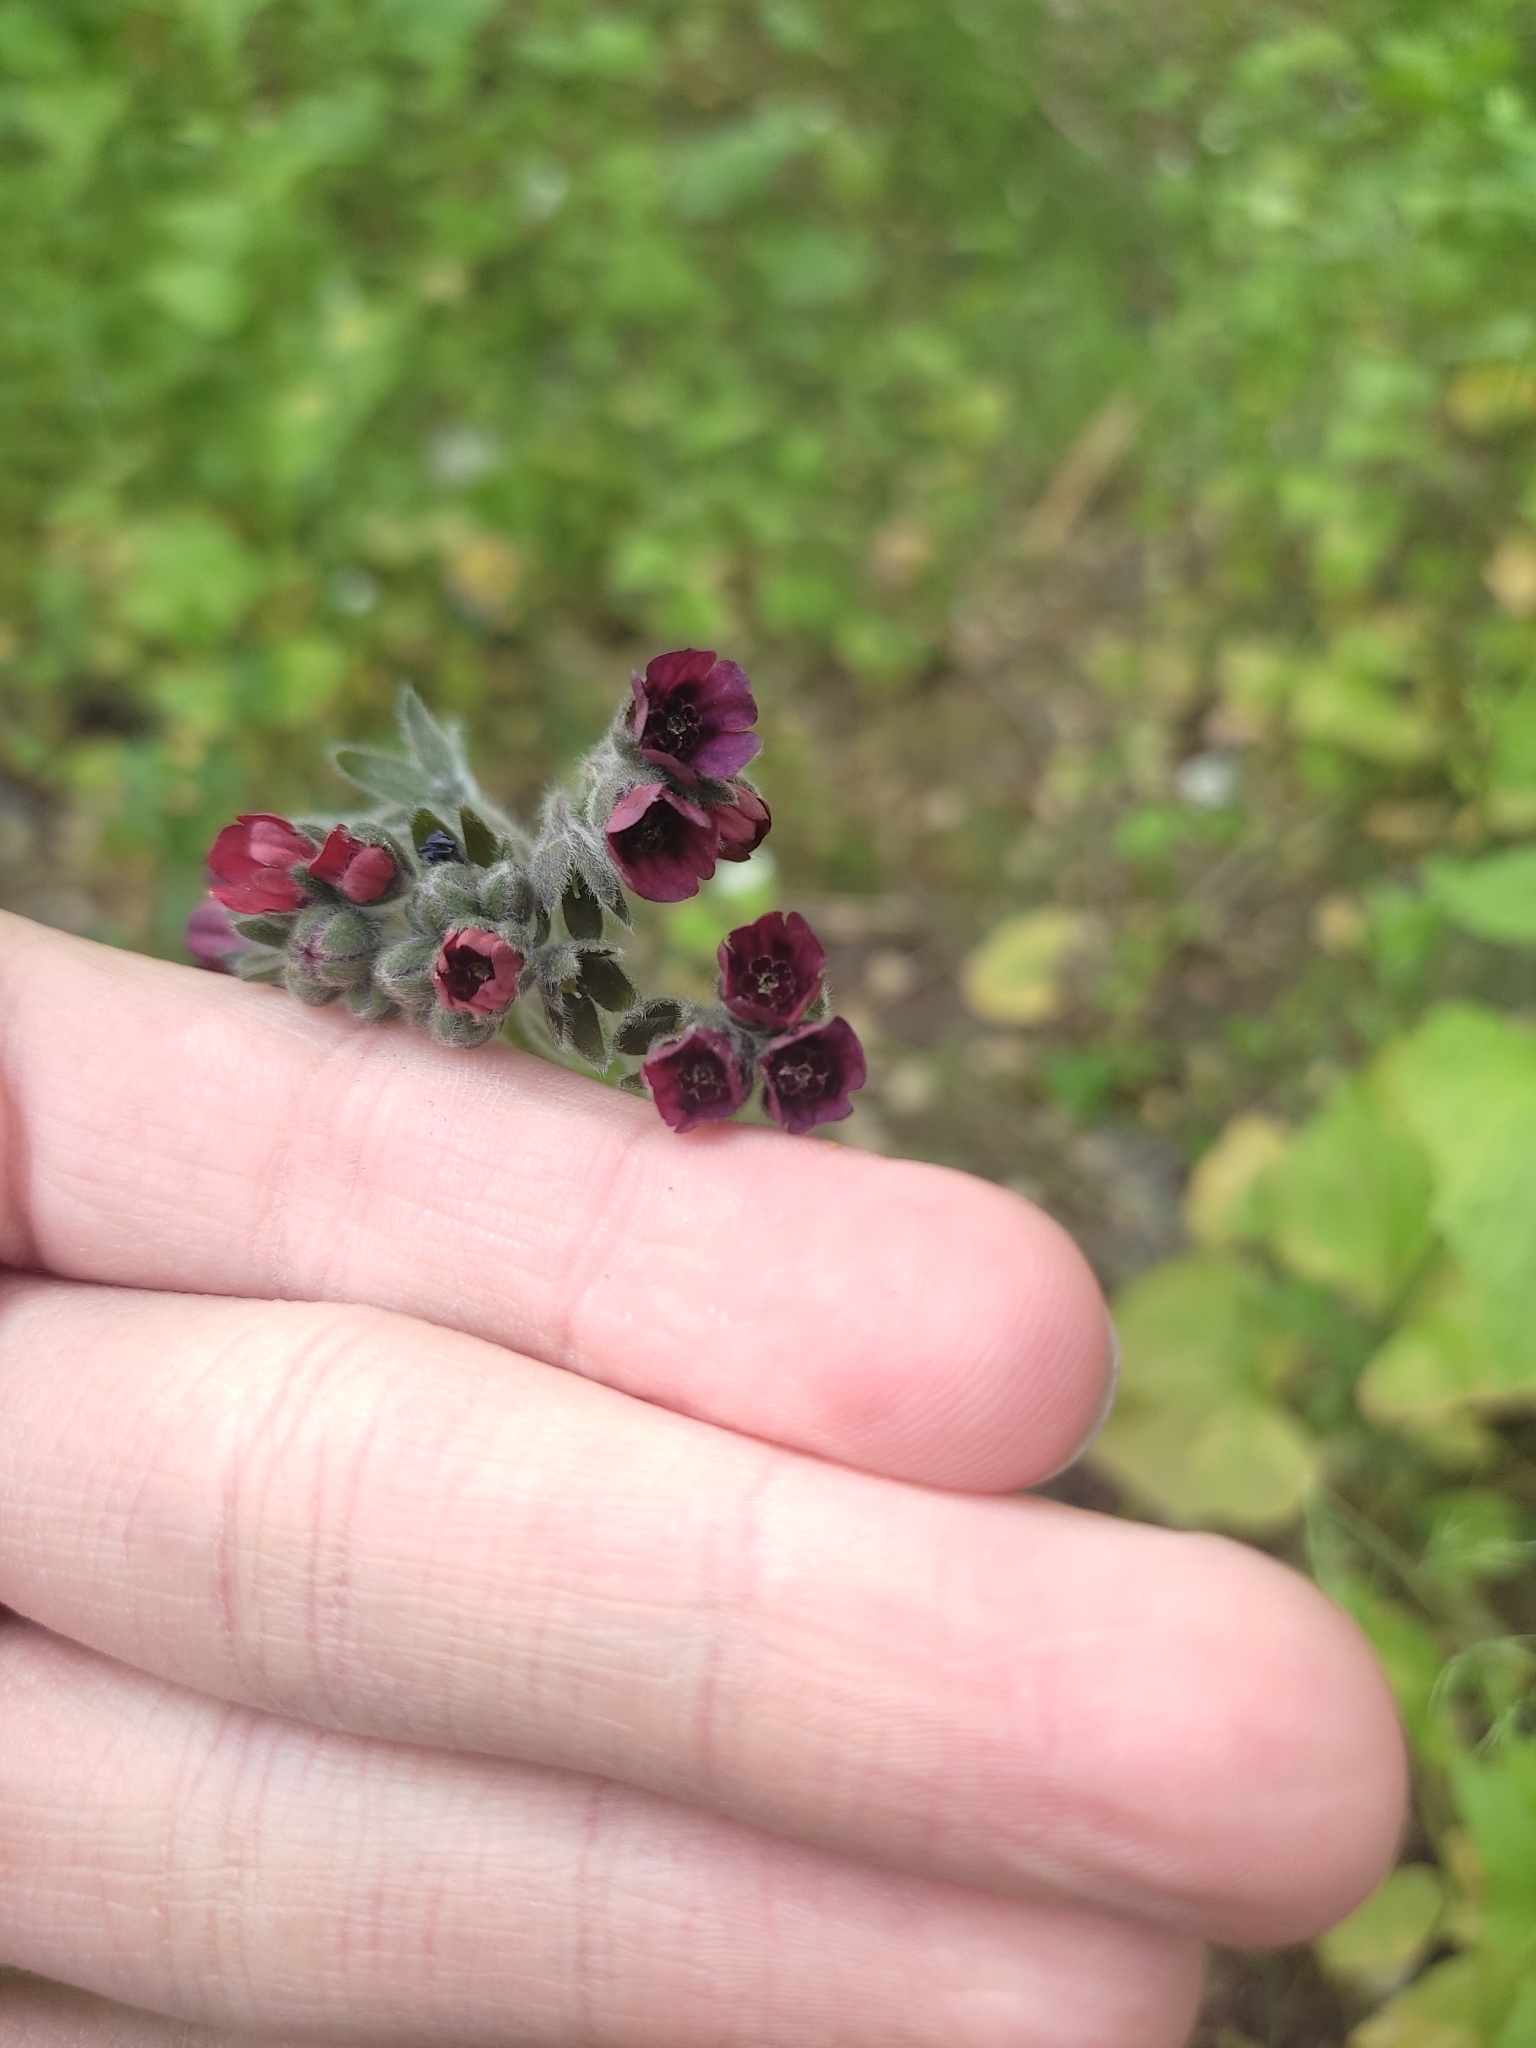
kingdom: Plantae
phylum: Tracheophyta
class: Magnoliopsida
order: Boraginales
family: Boraginaceae
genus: Cynoglossum
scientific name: Cynoglossum officinale
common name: Hound's-tongue
